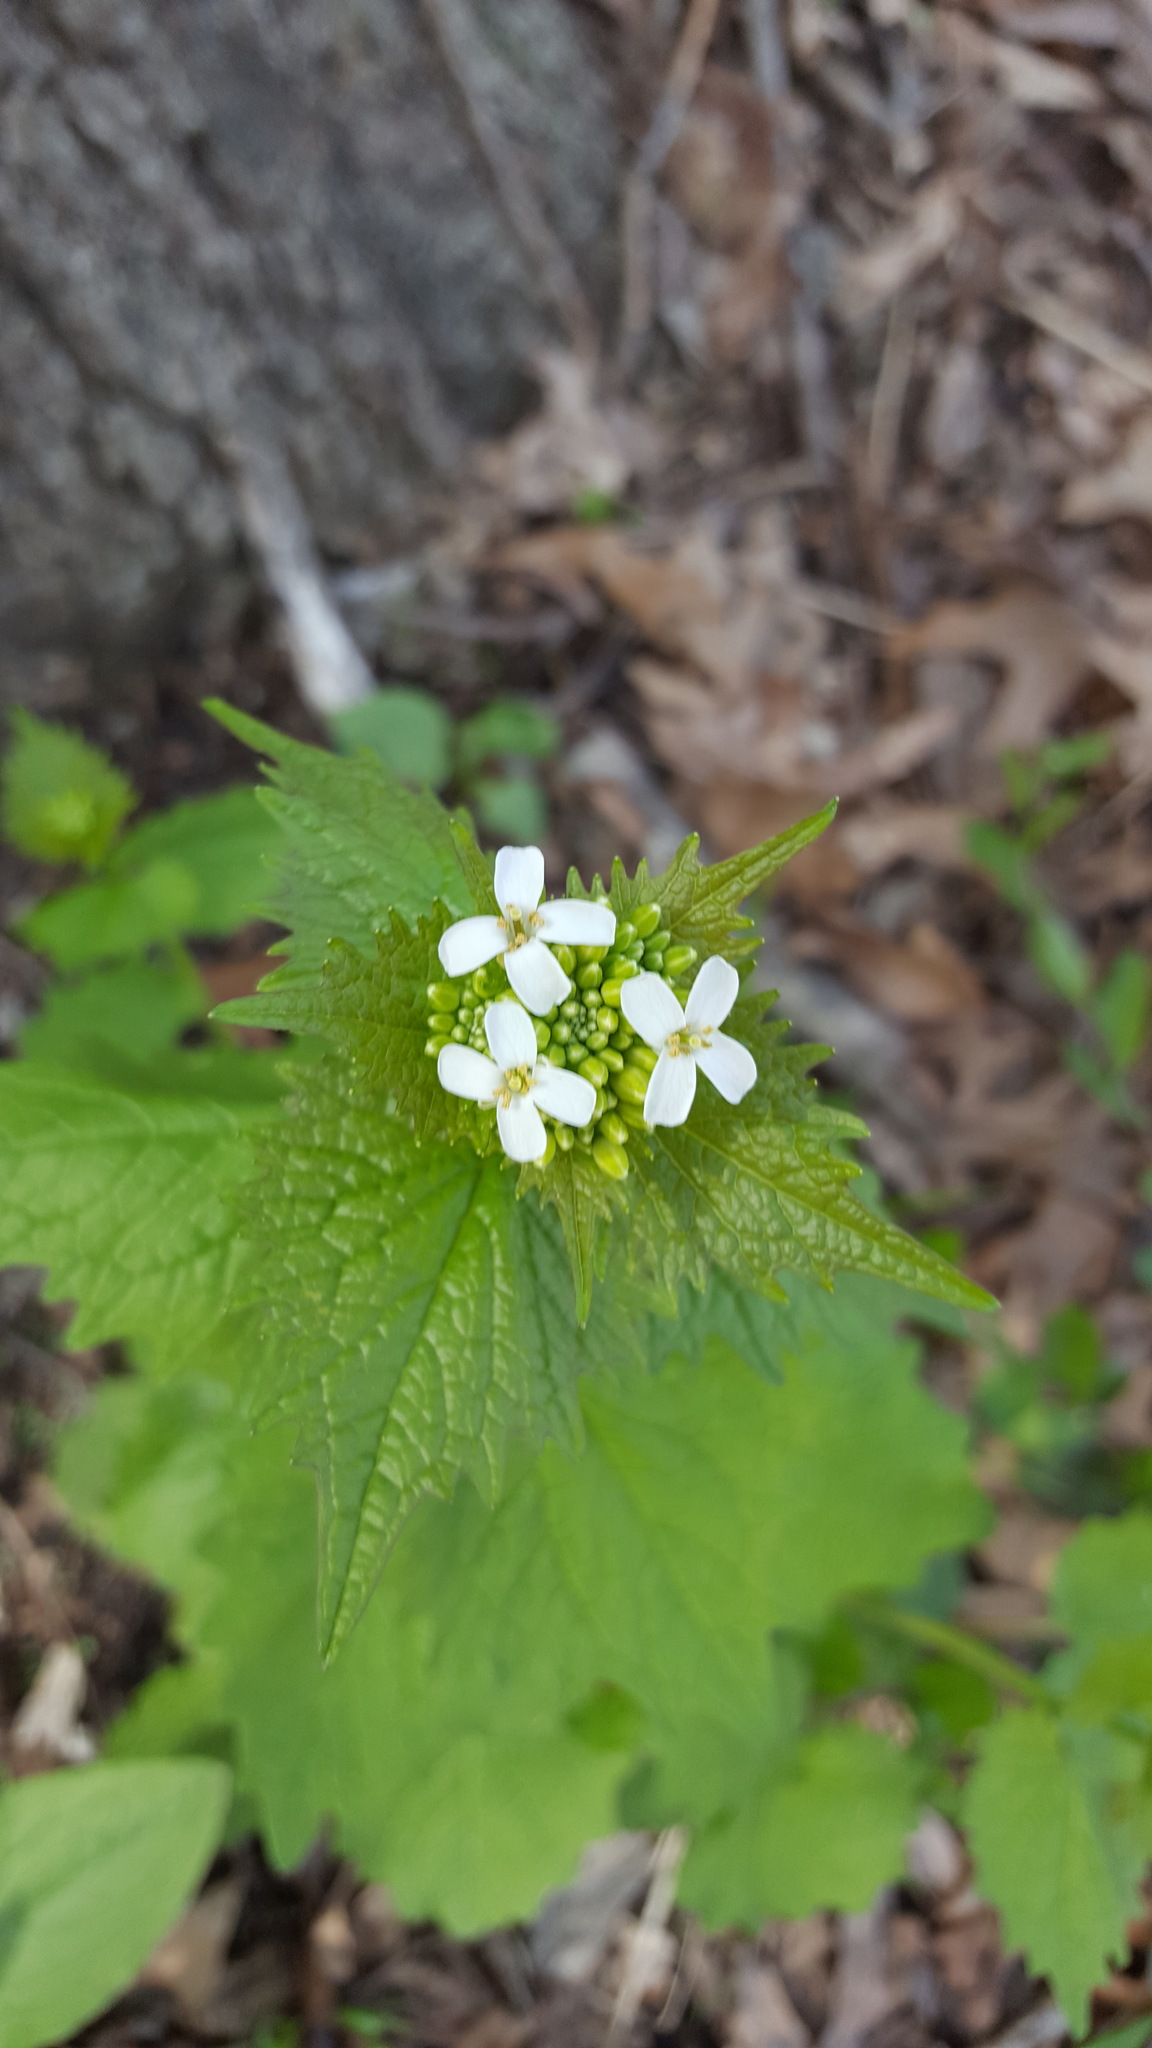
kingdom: Plantae
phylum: Tracheophyta
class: Magnoliopsida
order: Brassicales
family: Brassicaceae
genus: Alliaria
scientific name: Alliaria petiolata
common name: Garlic mustard
